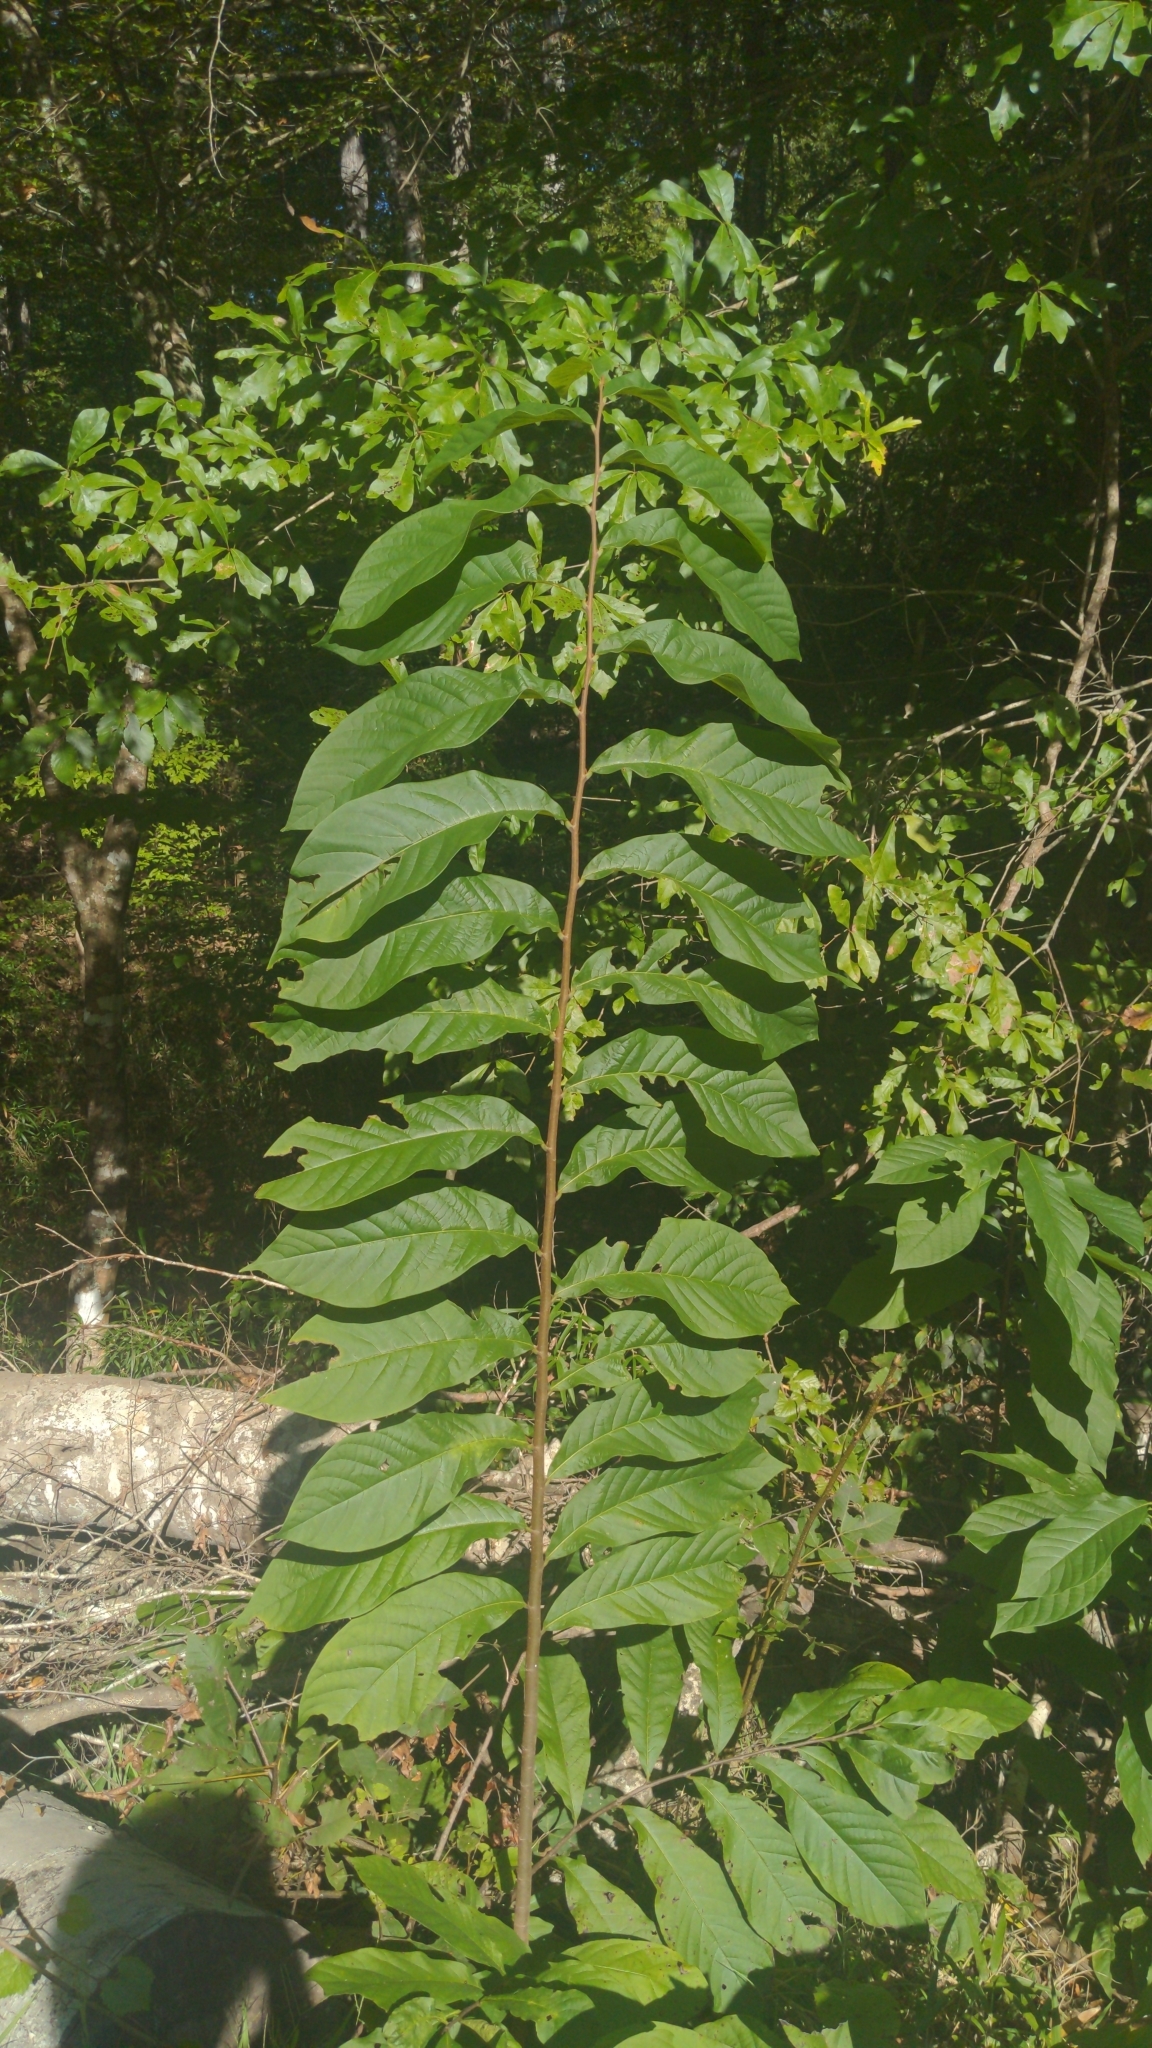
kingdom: Plantae
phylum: Tracheophyta
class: Magnoliopsida
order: Magnoliales
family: Annonaceae
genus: Asimina
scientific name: Asimina triloba
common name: Dog-banana
